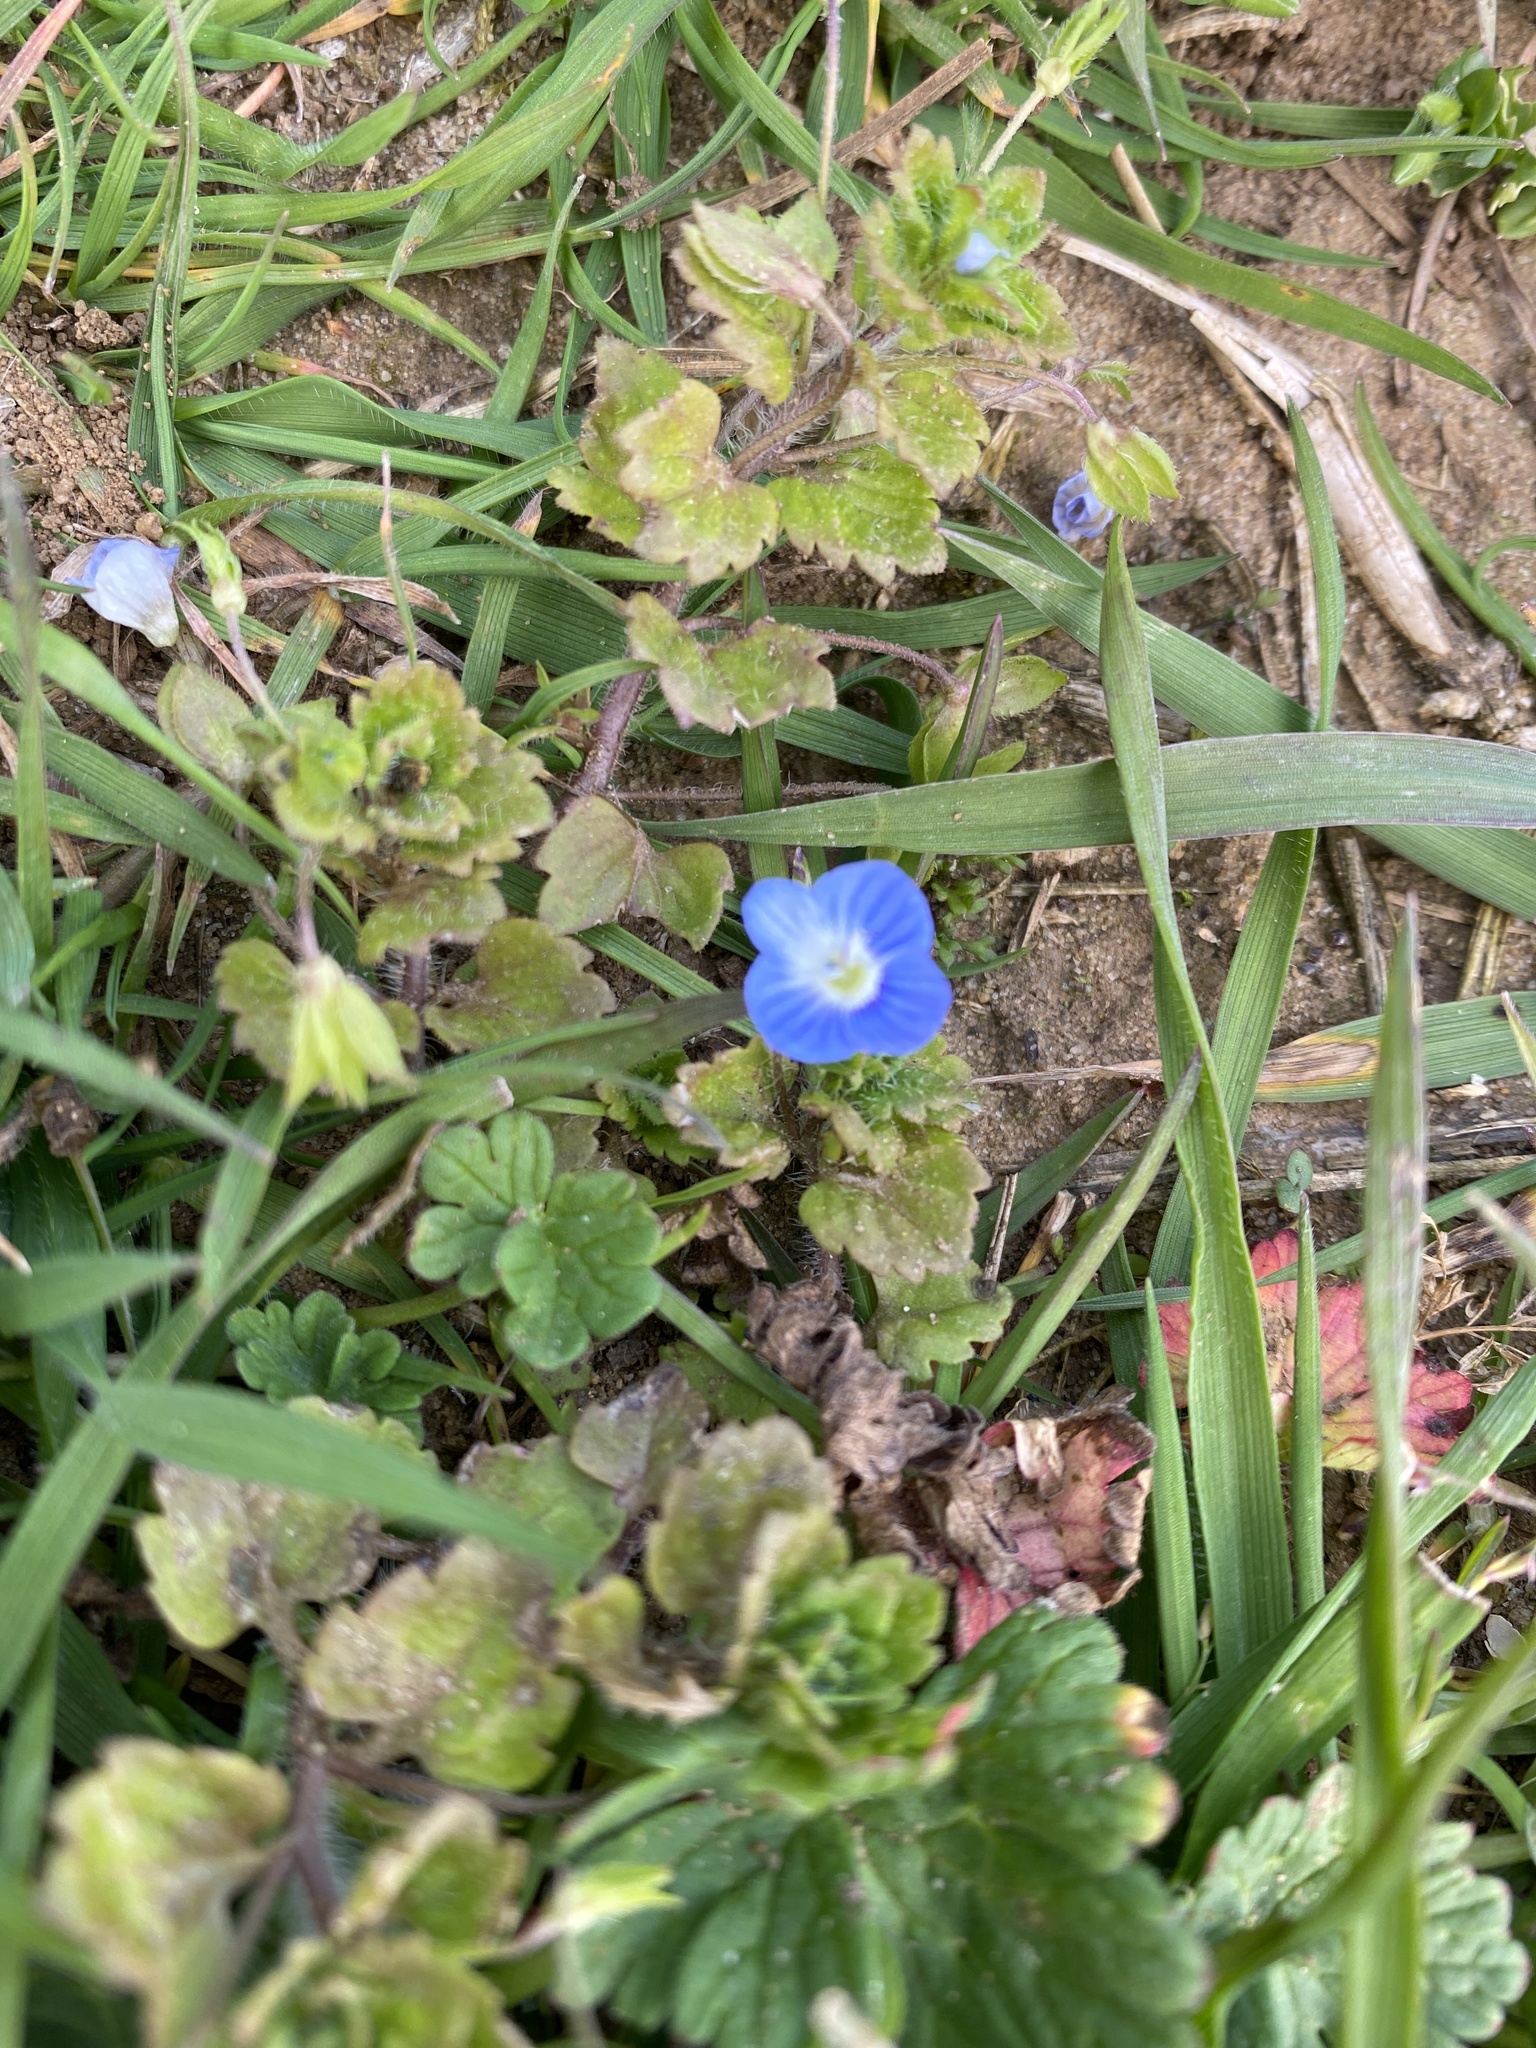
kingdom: Plantae
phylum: Tracheophyta
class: Magnoliopsida
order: Lamiales
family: Plantaginaceae
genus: Veronica
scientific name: Veronica persica
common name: Common field-speedwell
